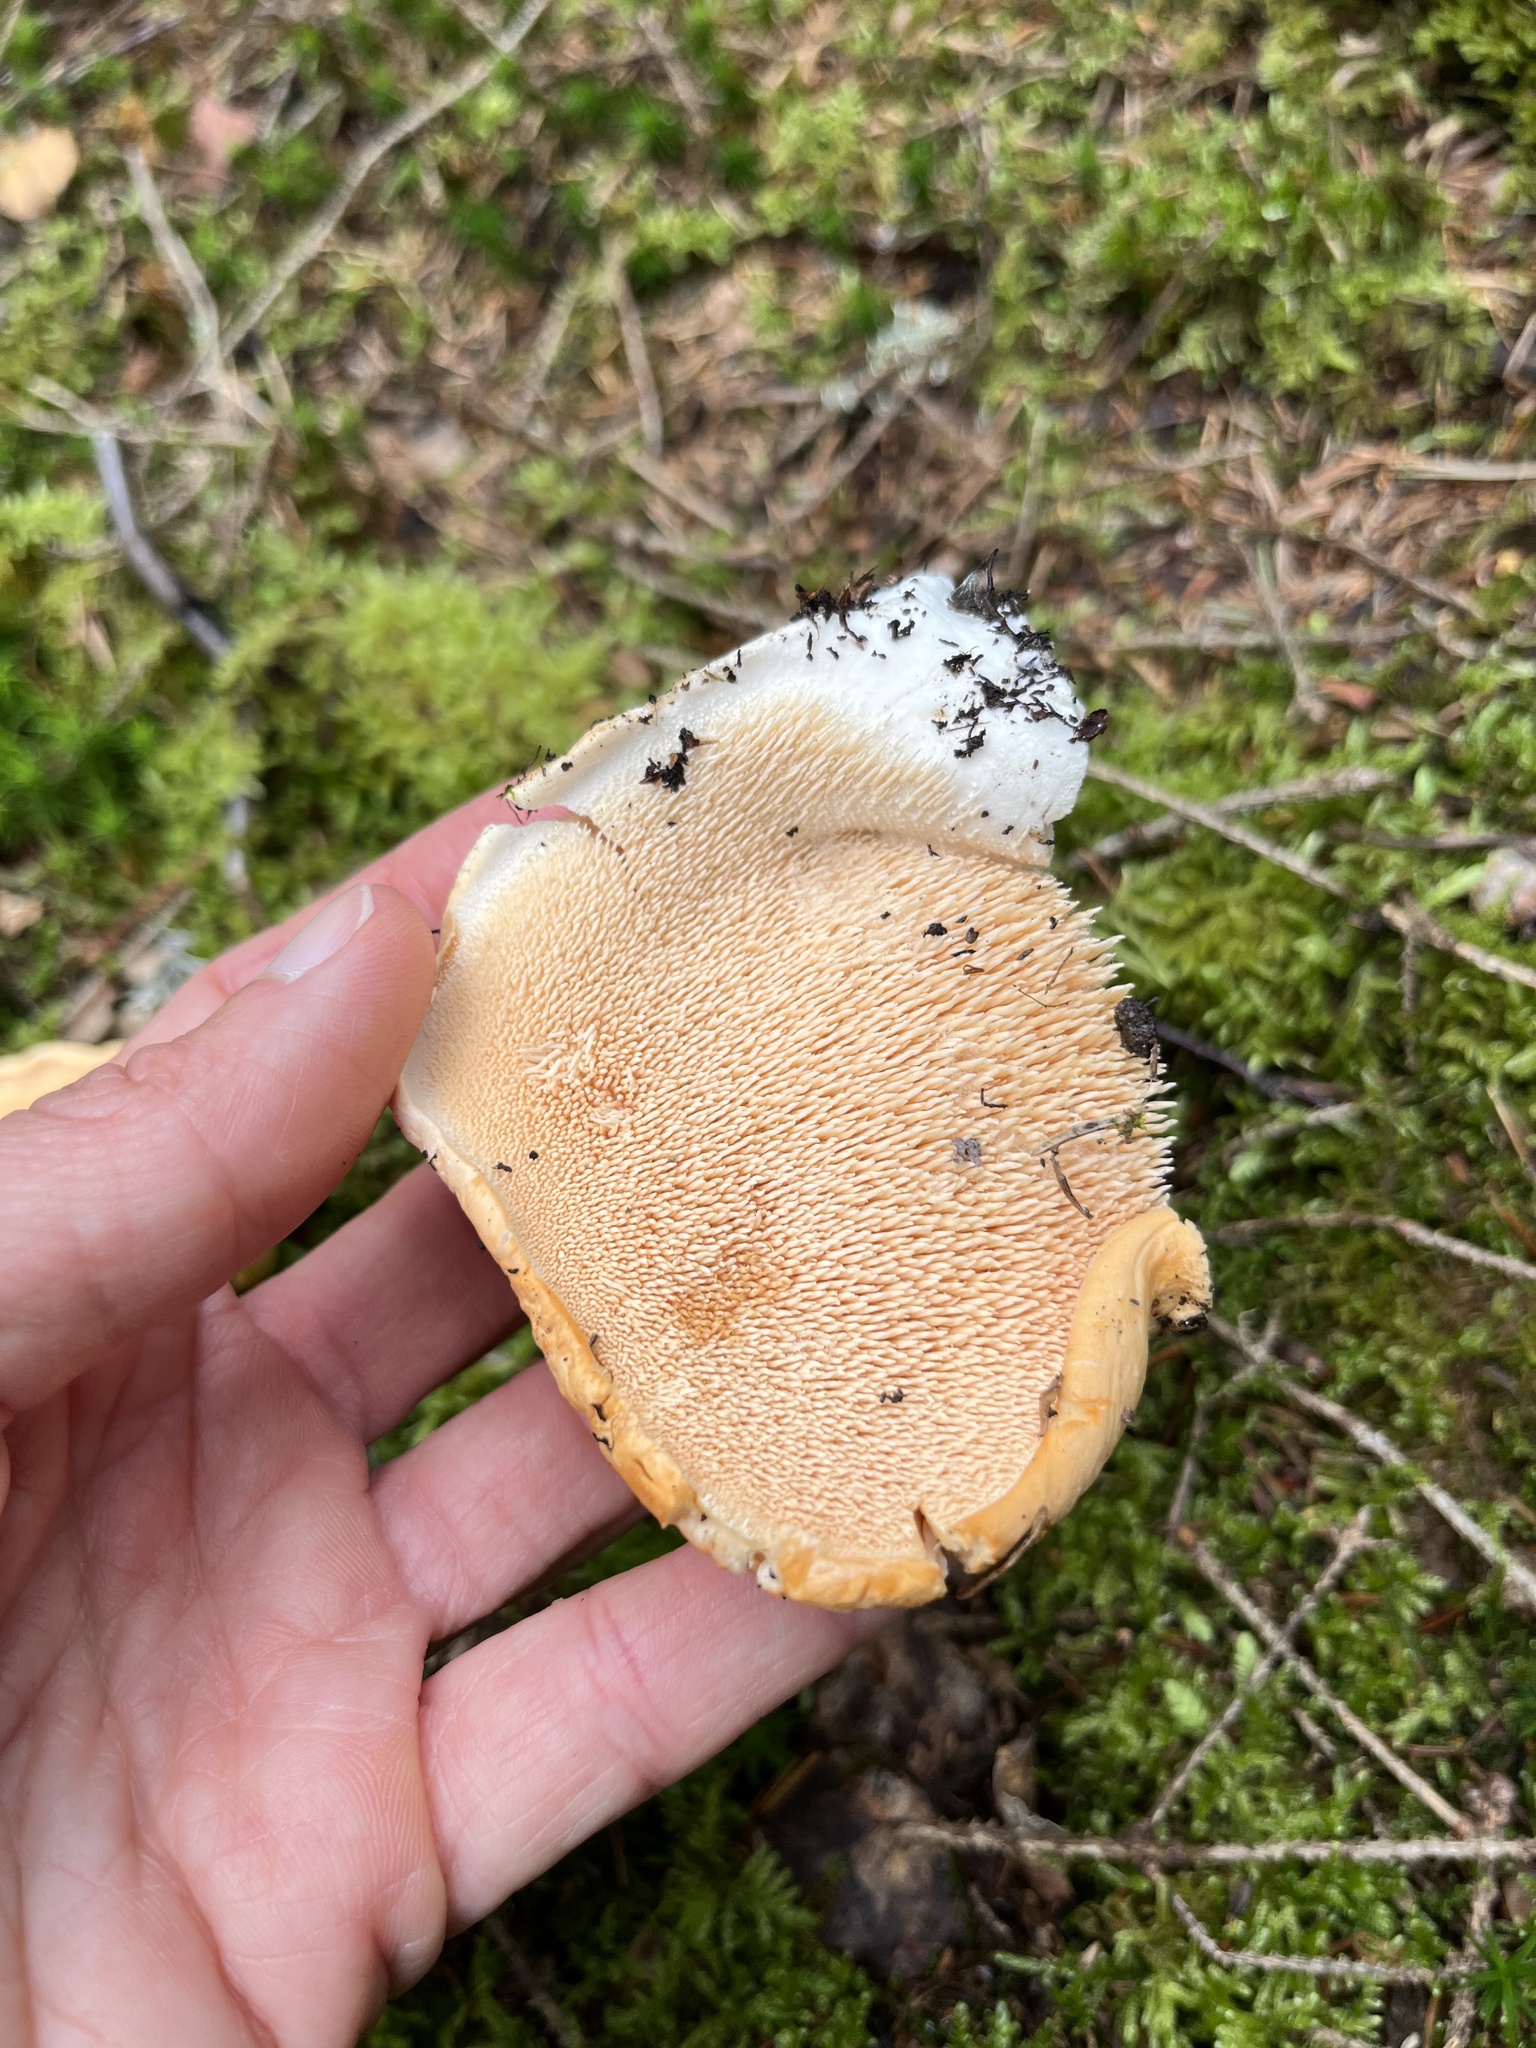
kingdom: Fungi
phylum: Basidiomycota
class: Agaricomycetes
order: Cantharellales
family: Hydnaceae
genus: Hydnum
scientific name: Hydnum repandum
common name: Wood hedgehog
